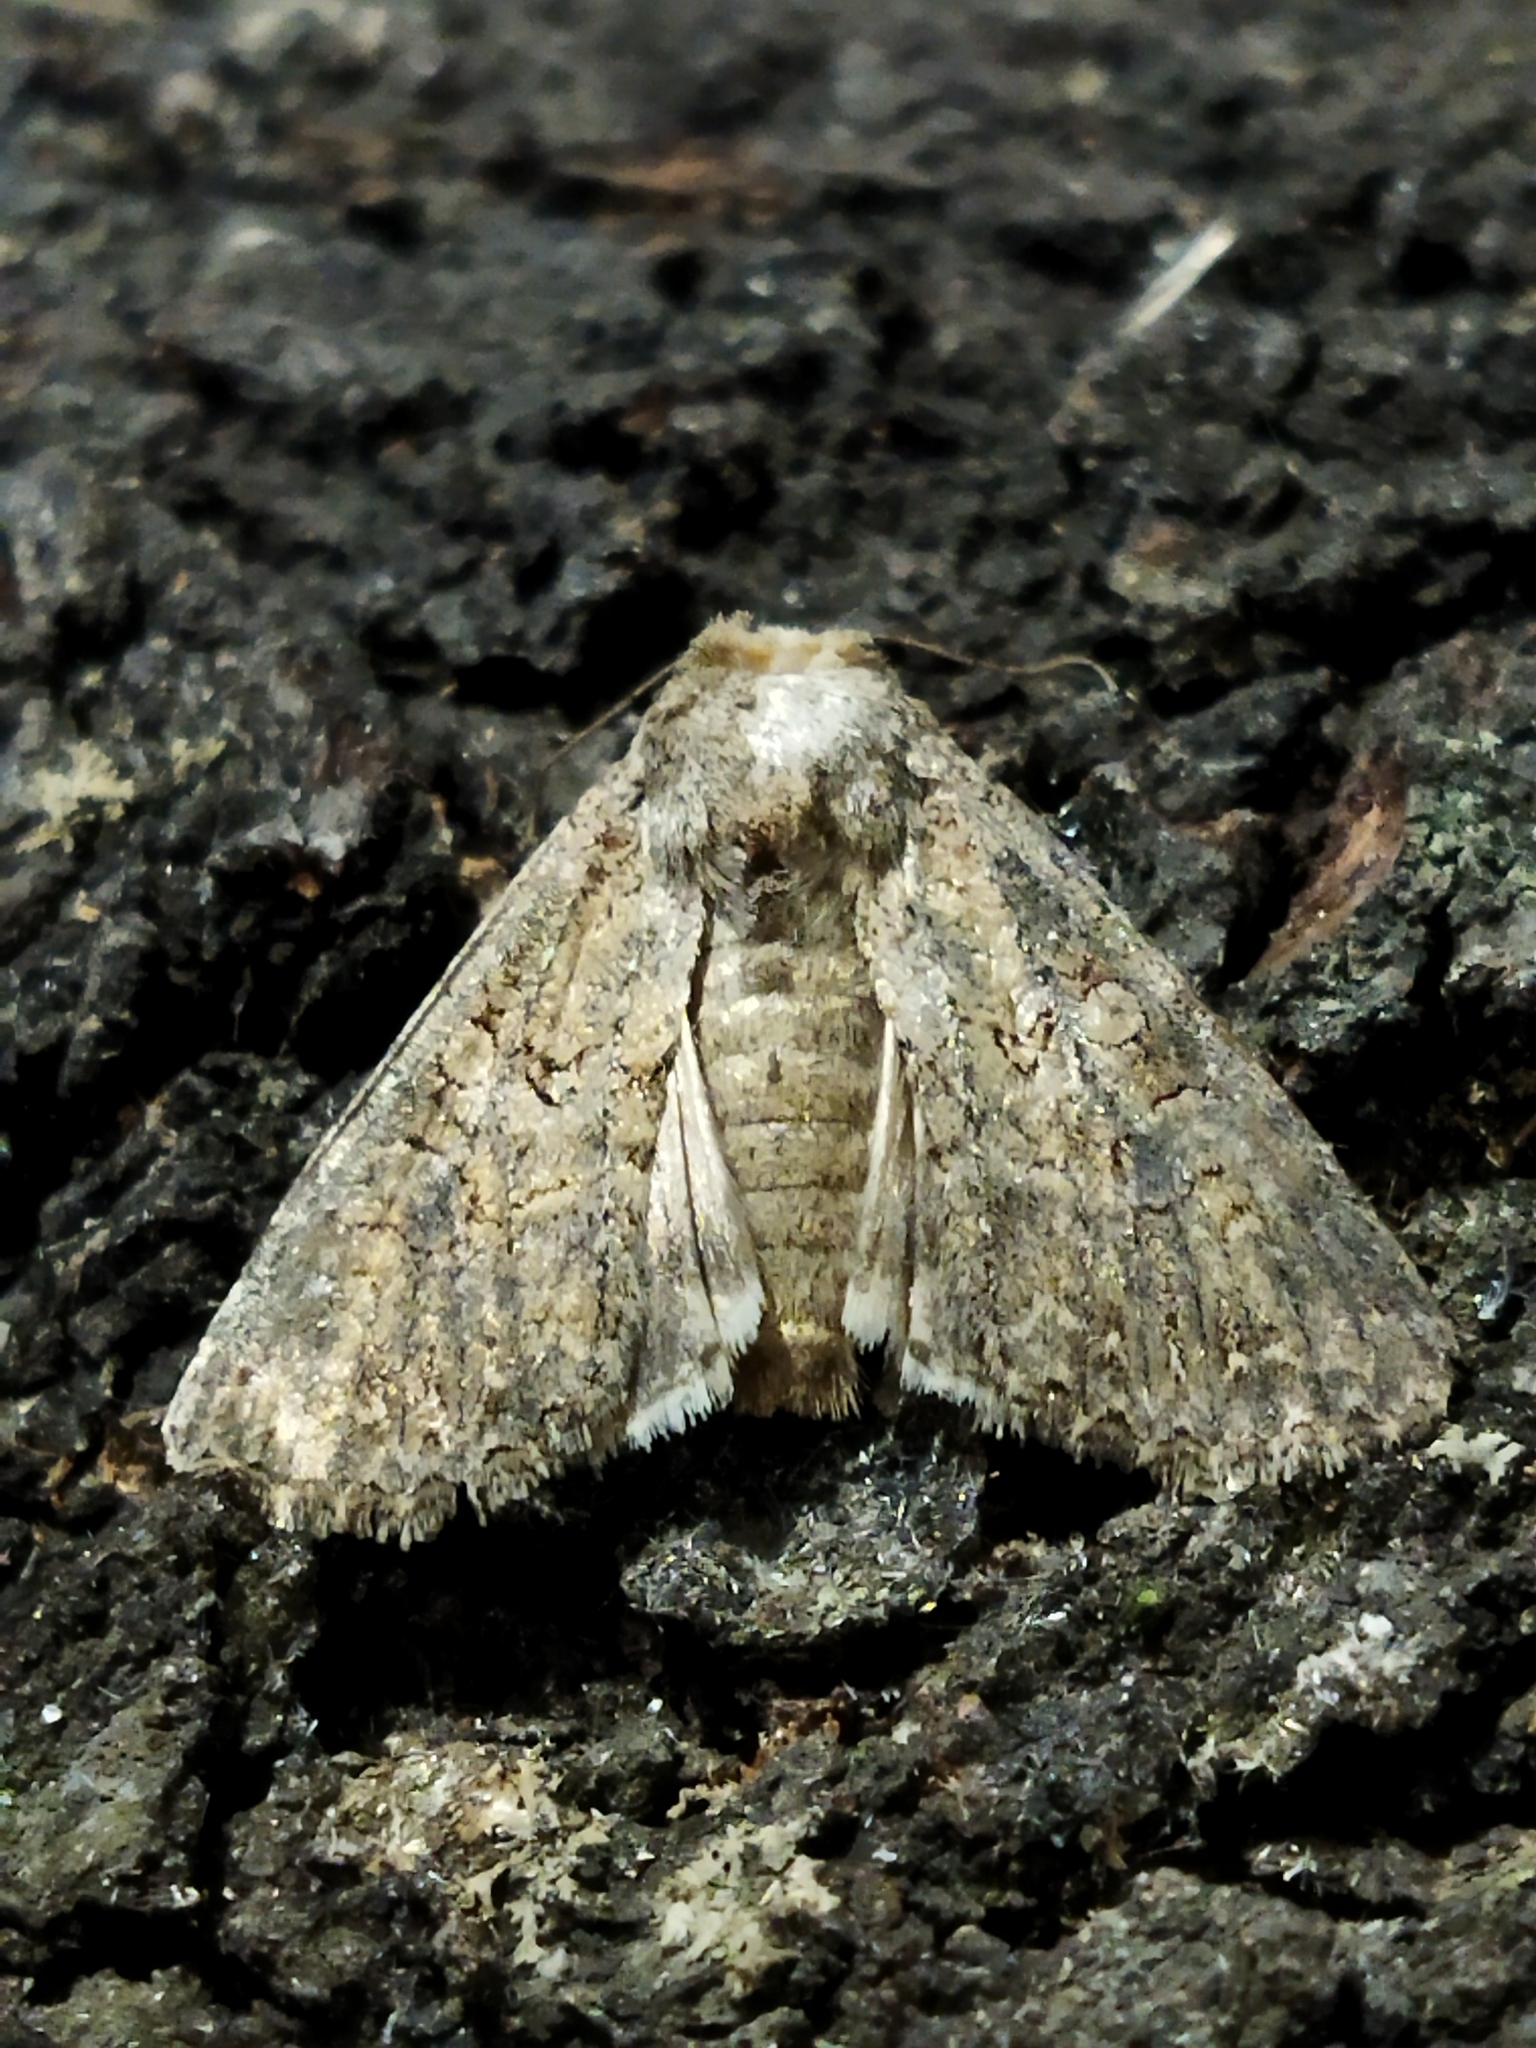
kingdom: Animalia
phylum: Arthropoda
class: Insecta
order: Lepidoptera
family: Noctuidae
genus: Anarta
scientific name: Anarta trifolii
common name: Clover cutworm moth
